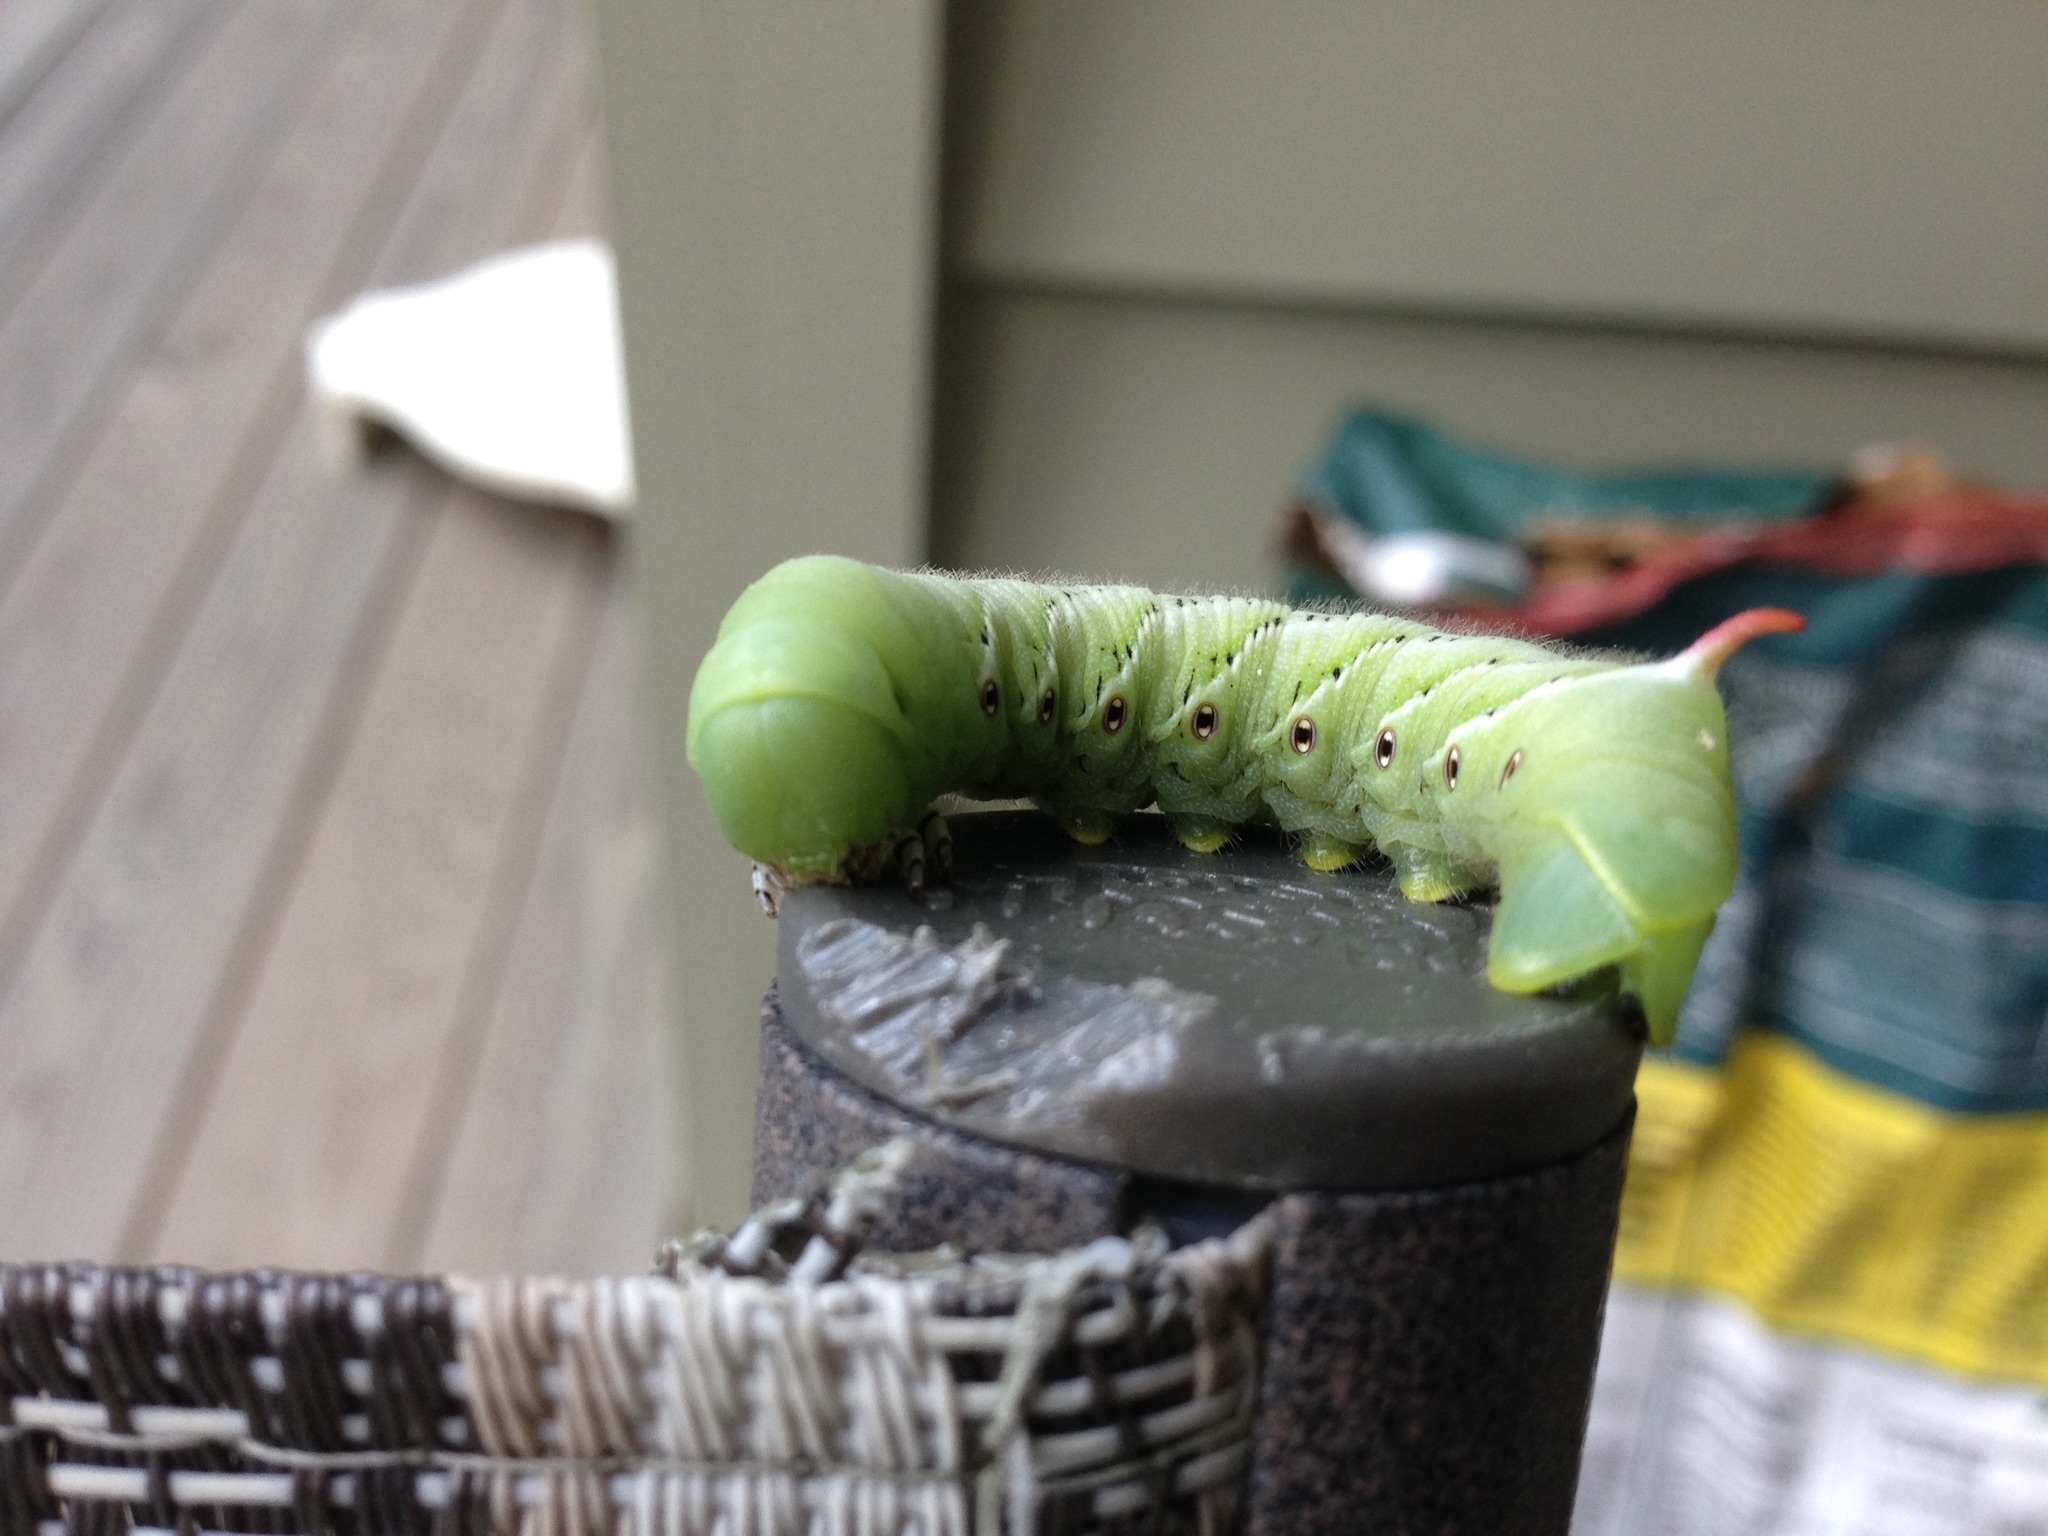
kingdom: Animalia
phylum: Arthropoda
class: Insecta
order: Lepidoptera
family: Sphingidae
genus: Manduca
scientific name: Manduca sexta
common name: Carolina sphinx
